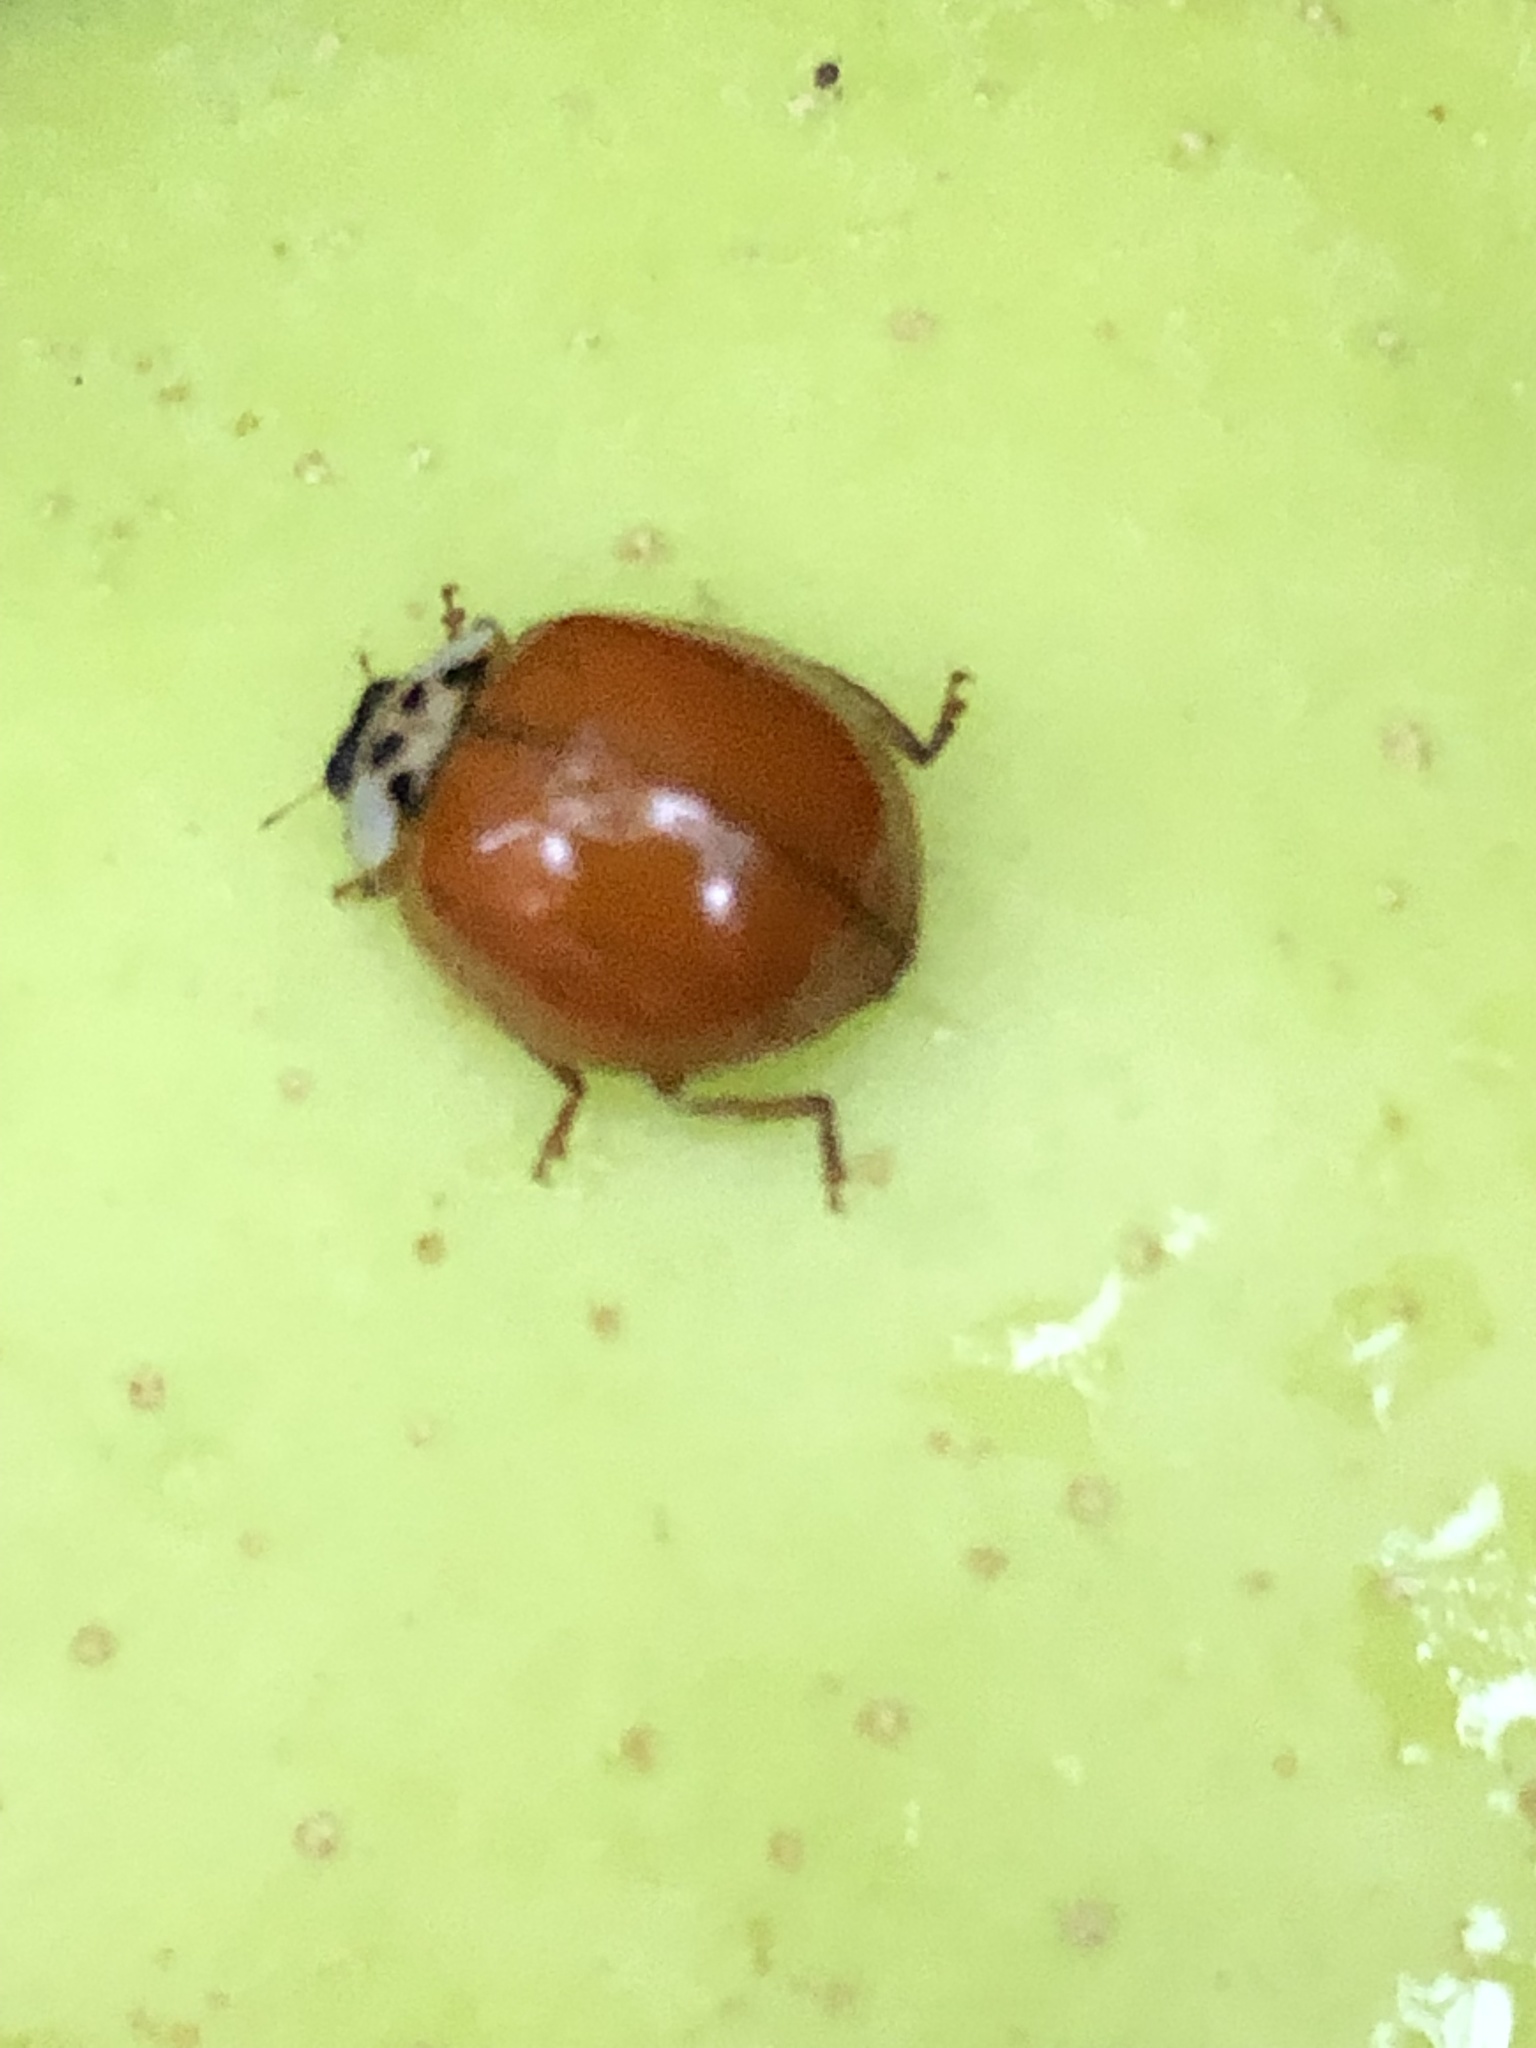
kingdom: Animalia
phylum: Arthropoda
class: Insecta
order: Coleoptera
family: Coccinellidae
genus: Harmonia
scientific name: Harmonia axyridis
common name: Harlequin ladybird
